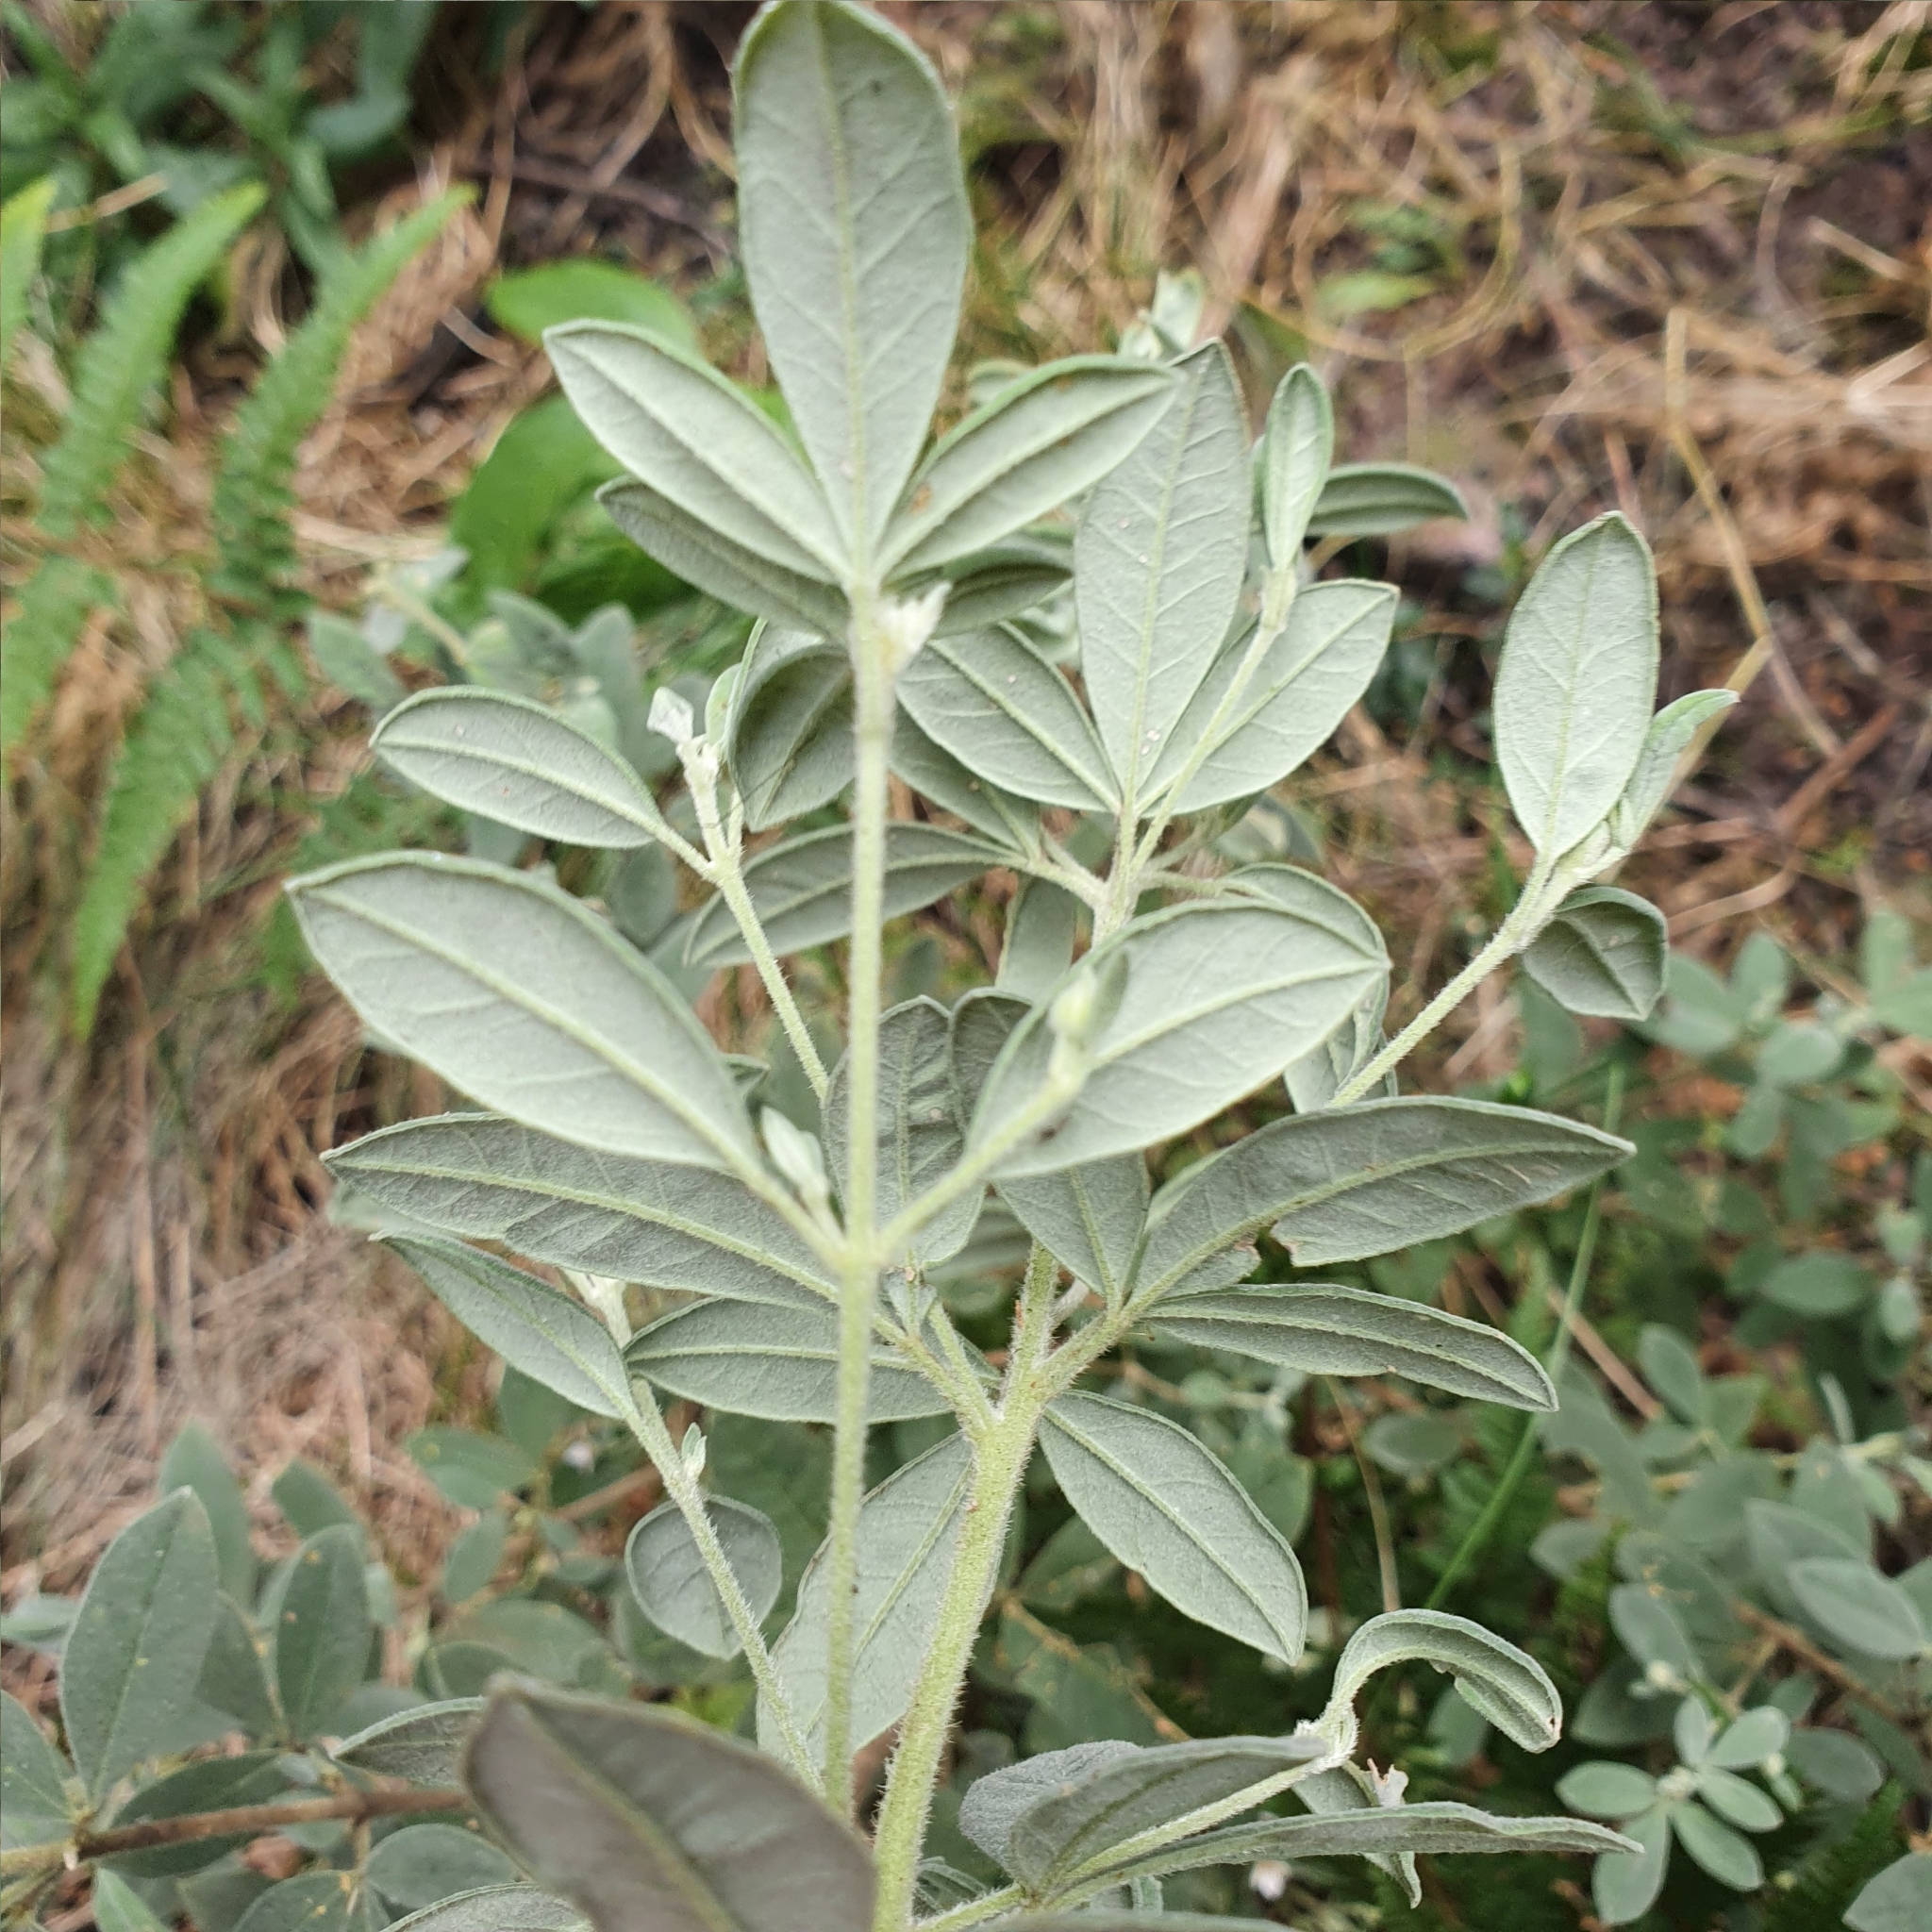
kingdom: Plantae
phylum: Tracheophyta
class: Magnoliopsida
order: Sapindales
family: Rutaceae
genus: Zieria
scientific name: Zieria cytisoides
